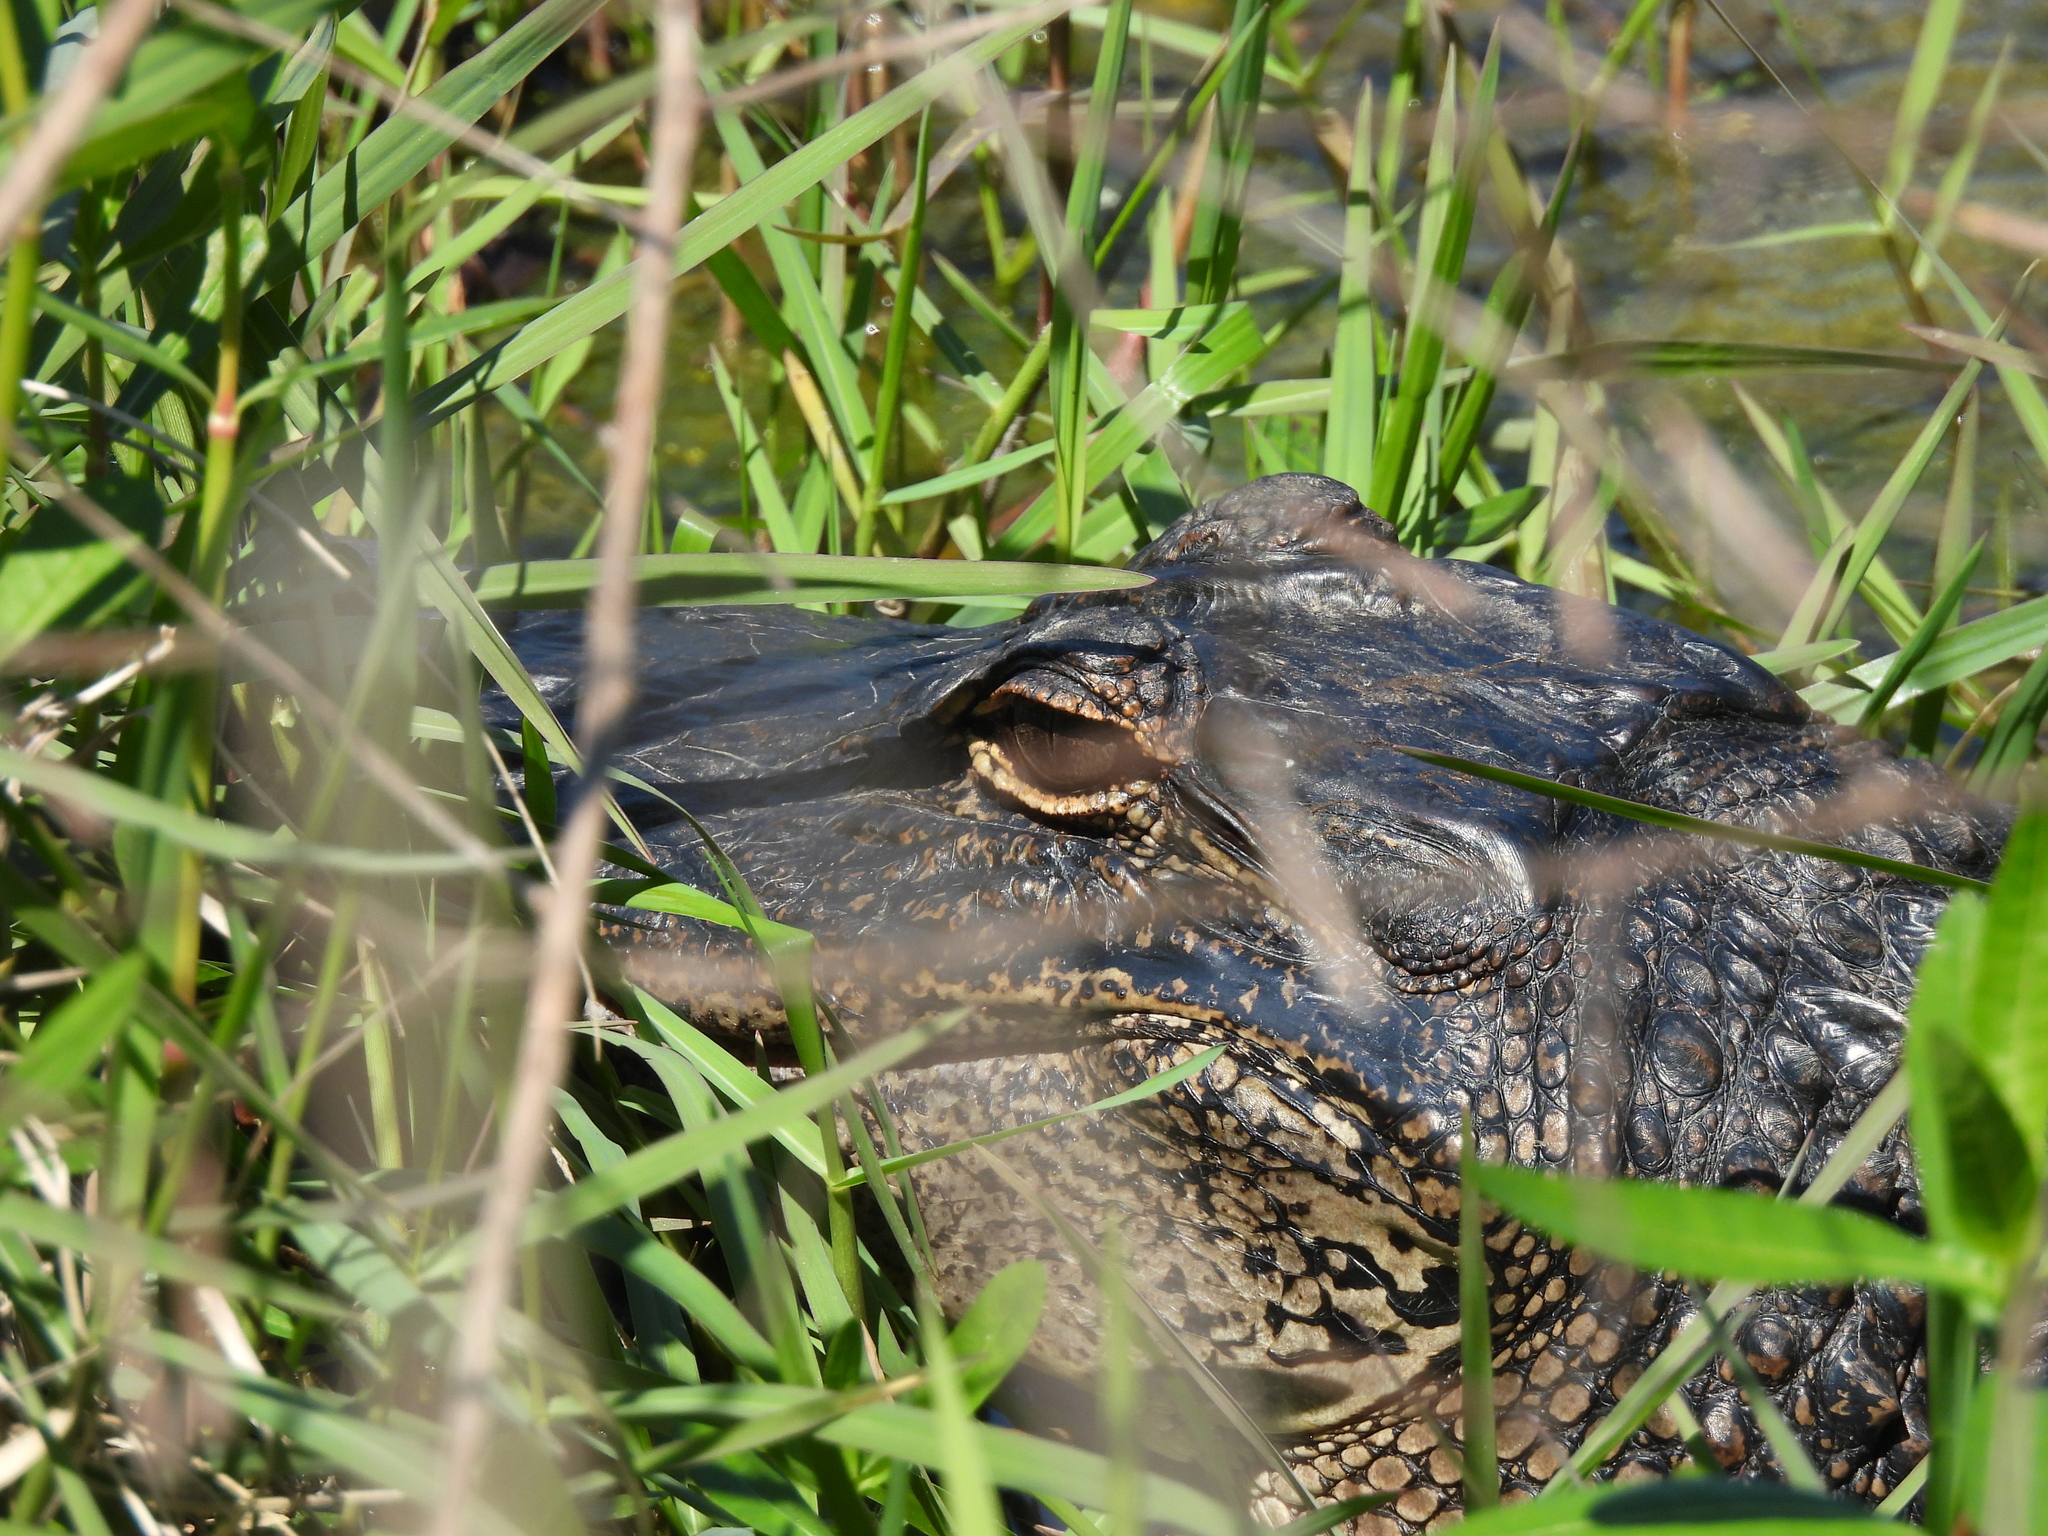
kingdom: Animalia
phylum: Chordata
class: Crocodylia
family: Alligatoridae
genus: Alligator
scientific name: Alligator mississippiensis
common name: American alligator
